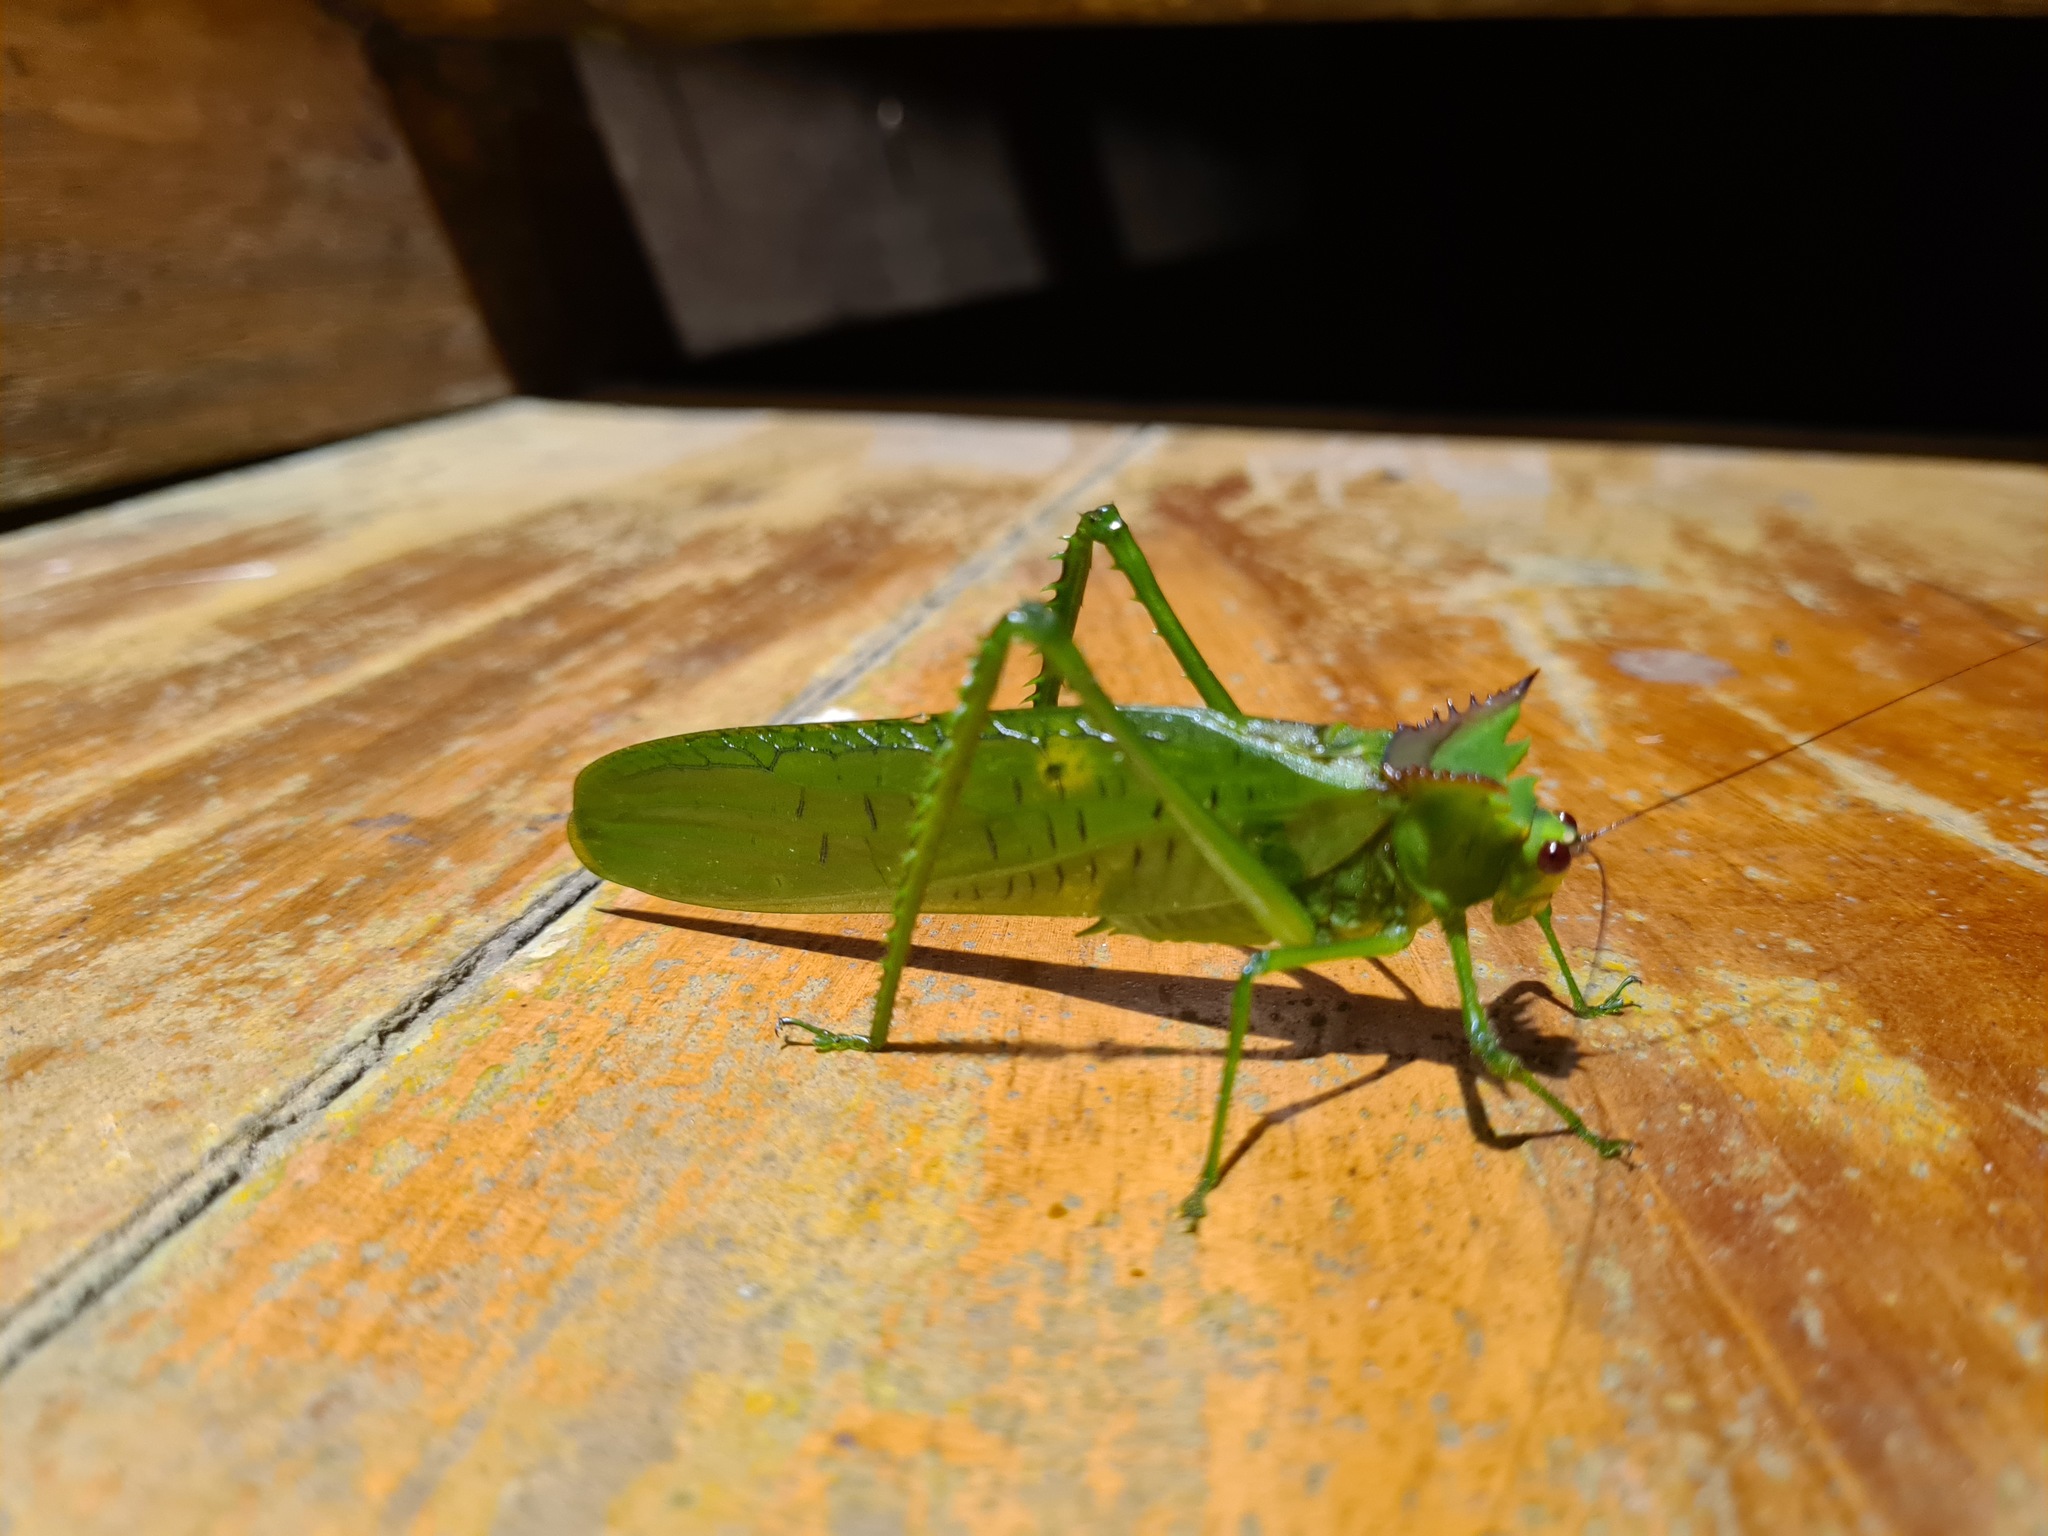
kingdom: Animalia
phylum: Arthropoda
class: Insecta
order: Orthoptera
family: Tettigoniidae
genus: Nicklephyllum
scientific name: Nicklephyllum acanthonotum
